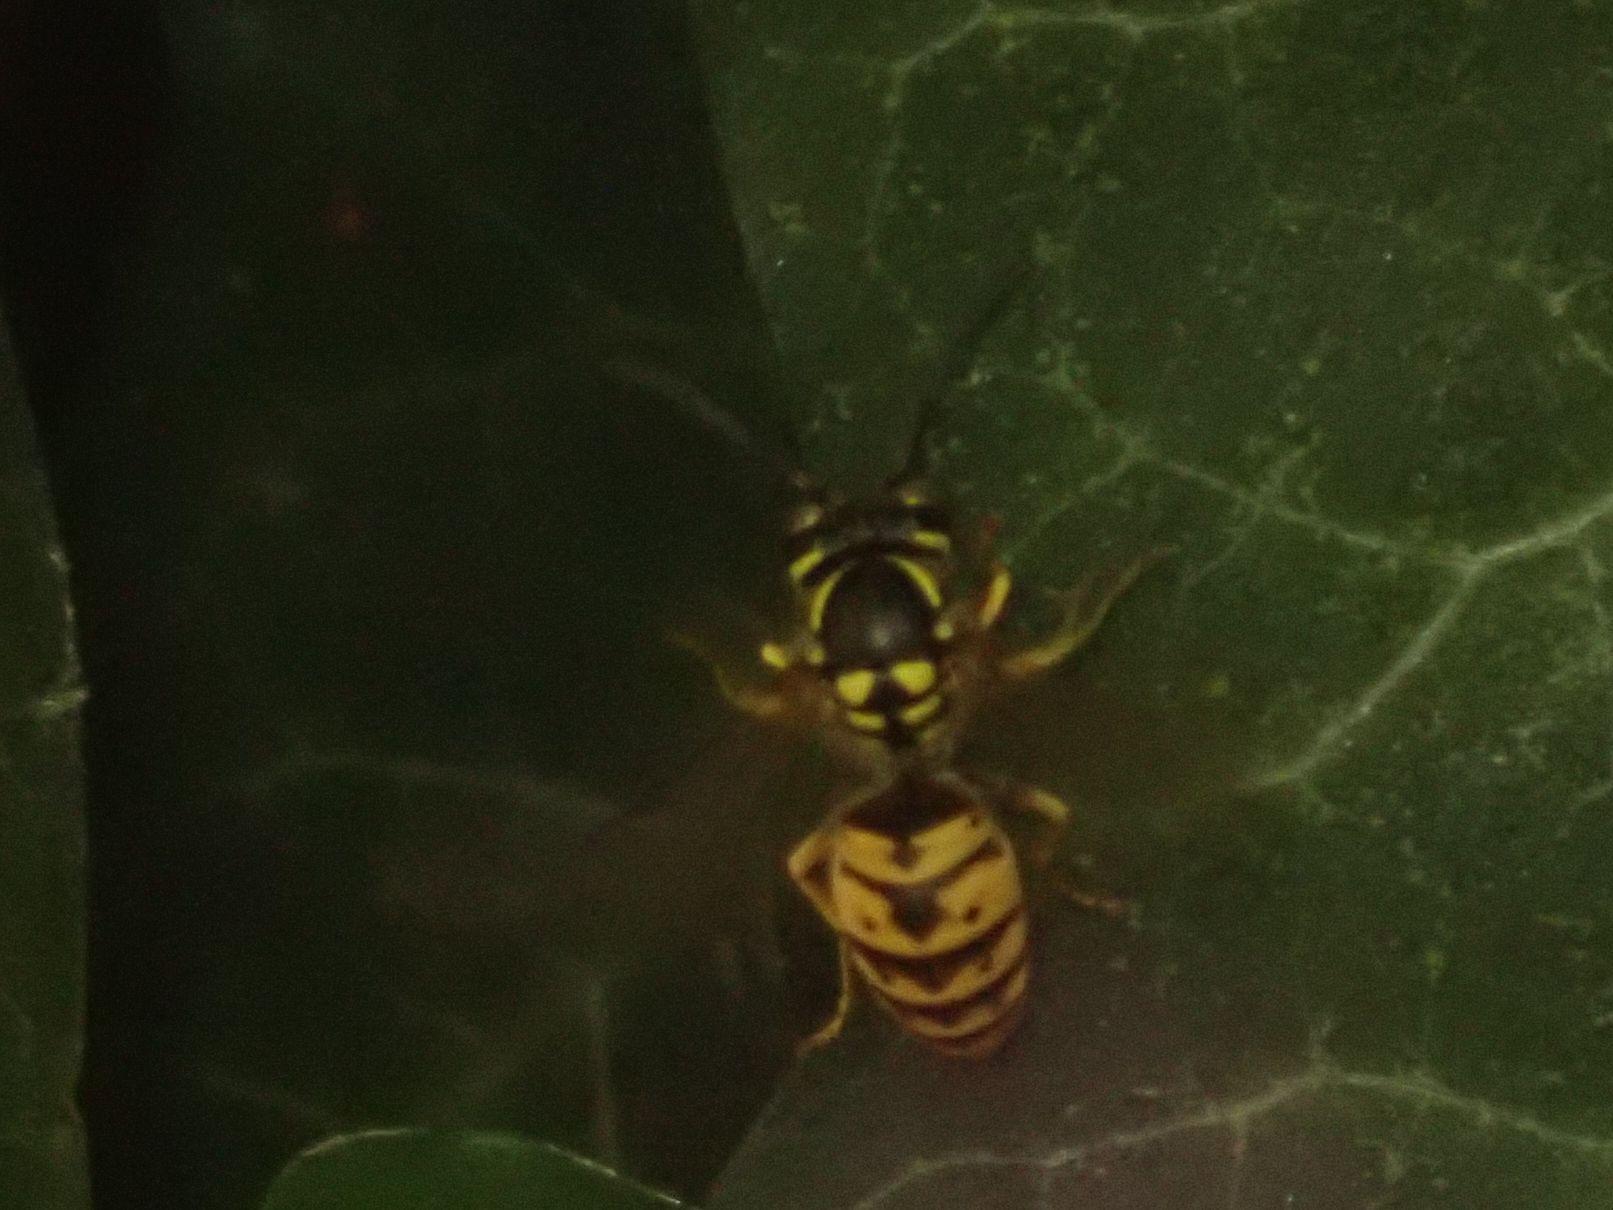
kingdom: Animalia
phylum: Arthropoda
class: Insecta
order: Hymenoptera
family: Vespidae
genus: Vespula
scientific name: Vespula germanica
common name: German wasp
